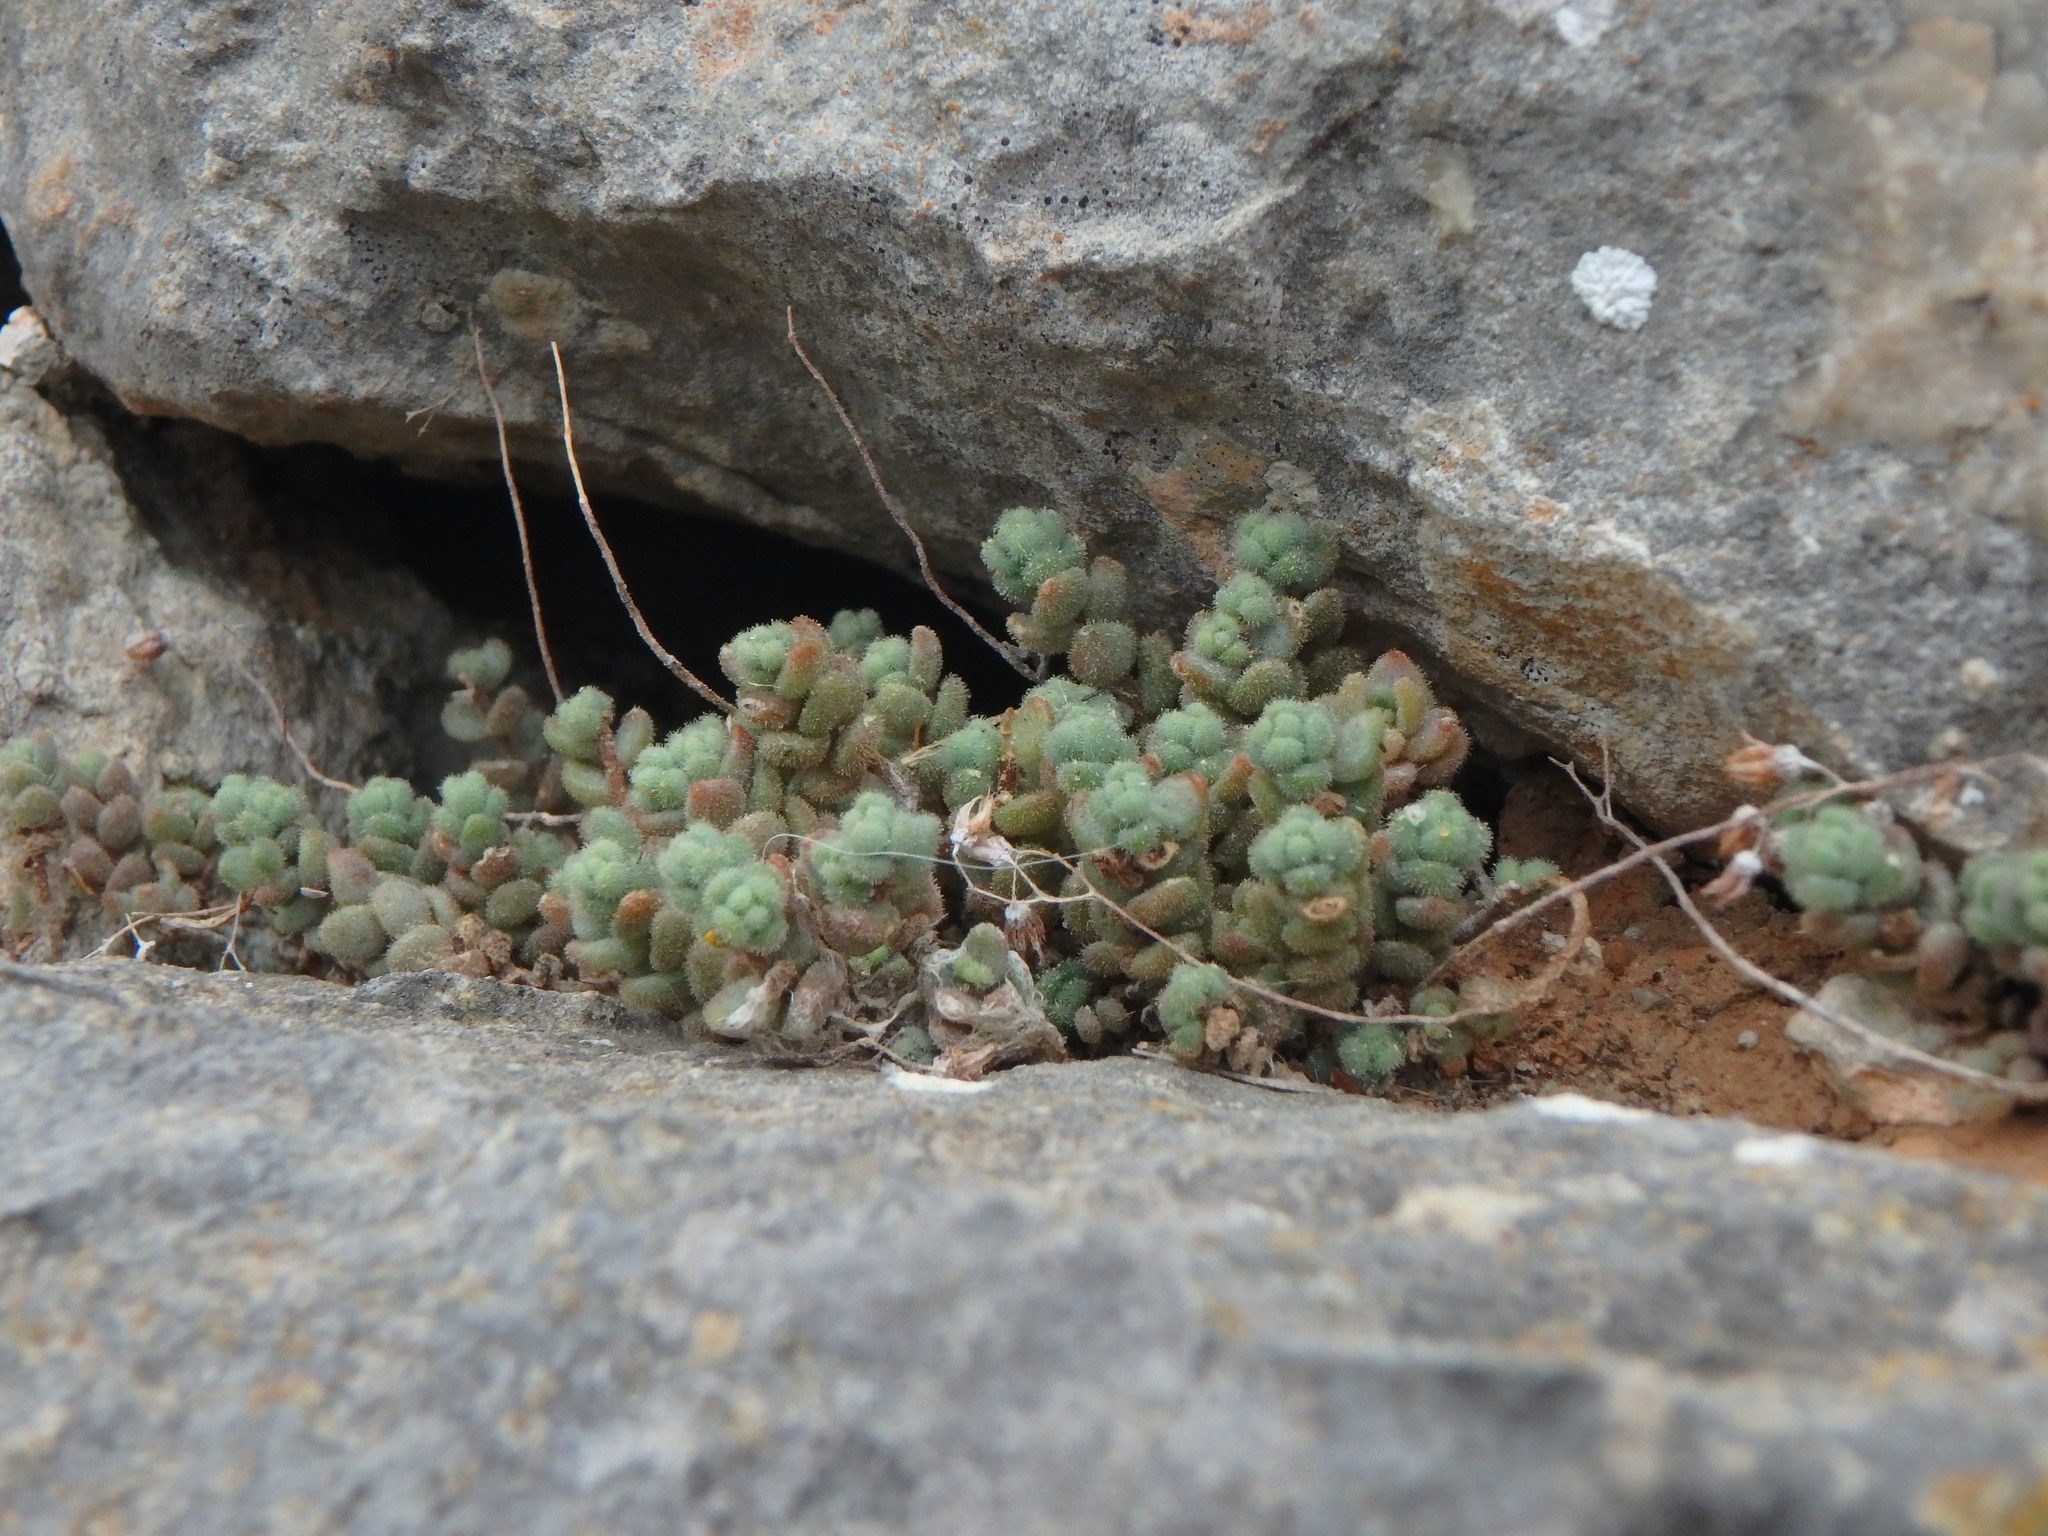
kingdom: Plantae
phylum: Tracheophyta
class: Magnoliopsida
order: Saxifragales
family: Crassulaceae
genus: Sedum
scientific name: Sedum dasyphyllum
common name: Thick-leaf stonecrop
